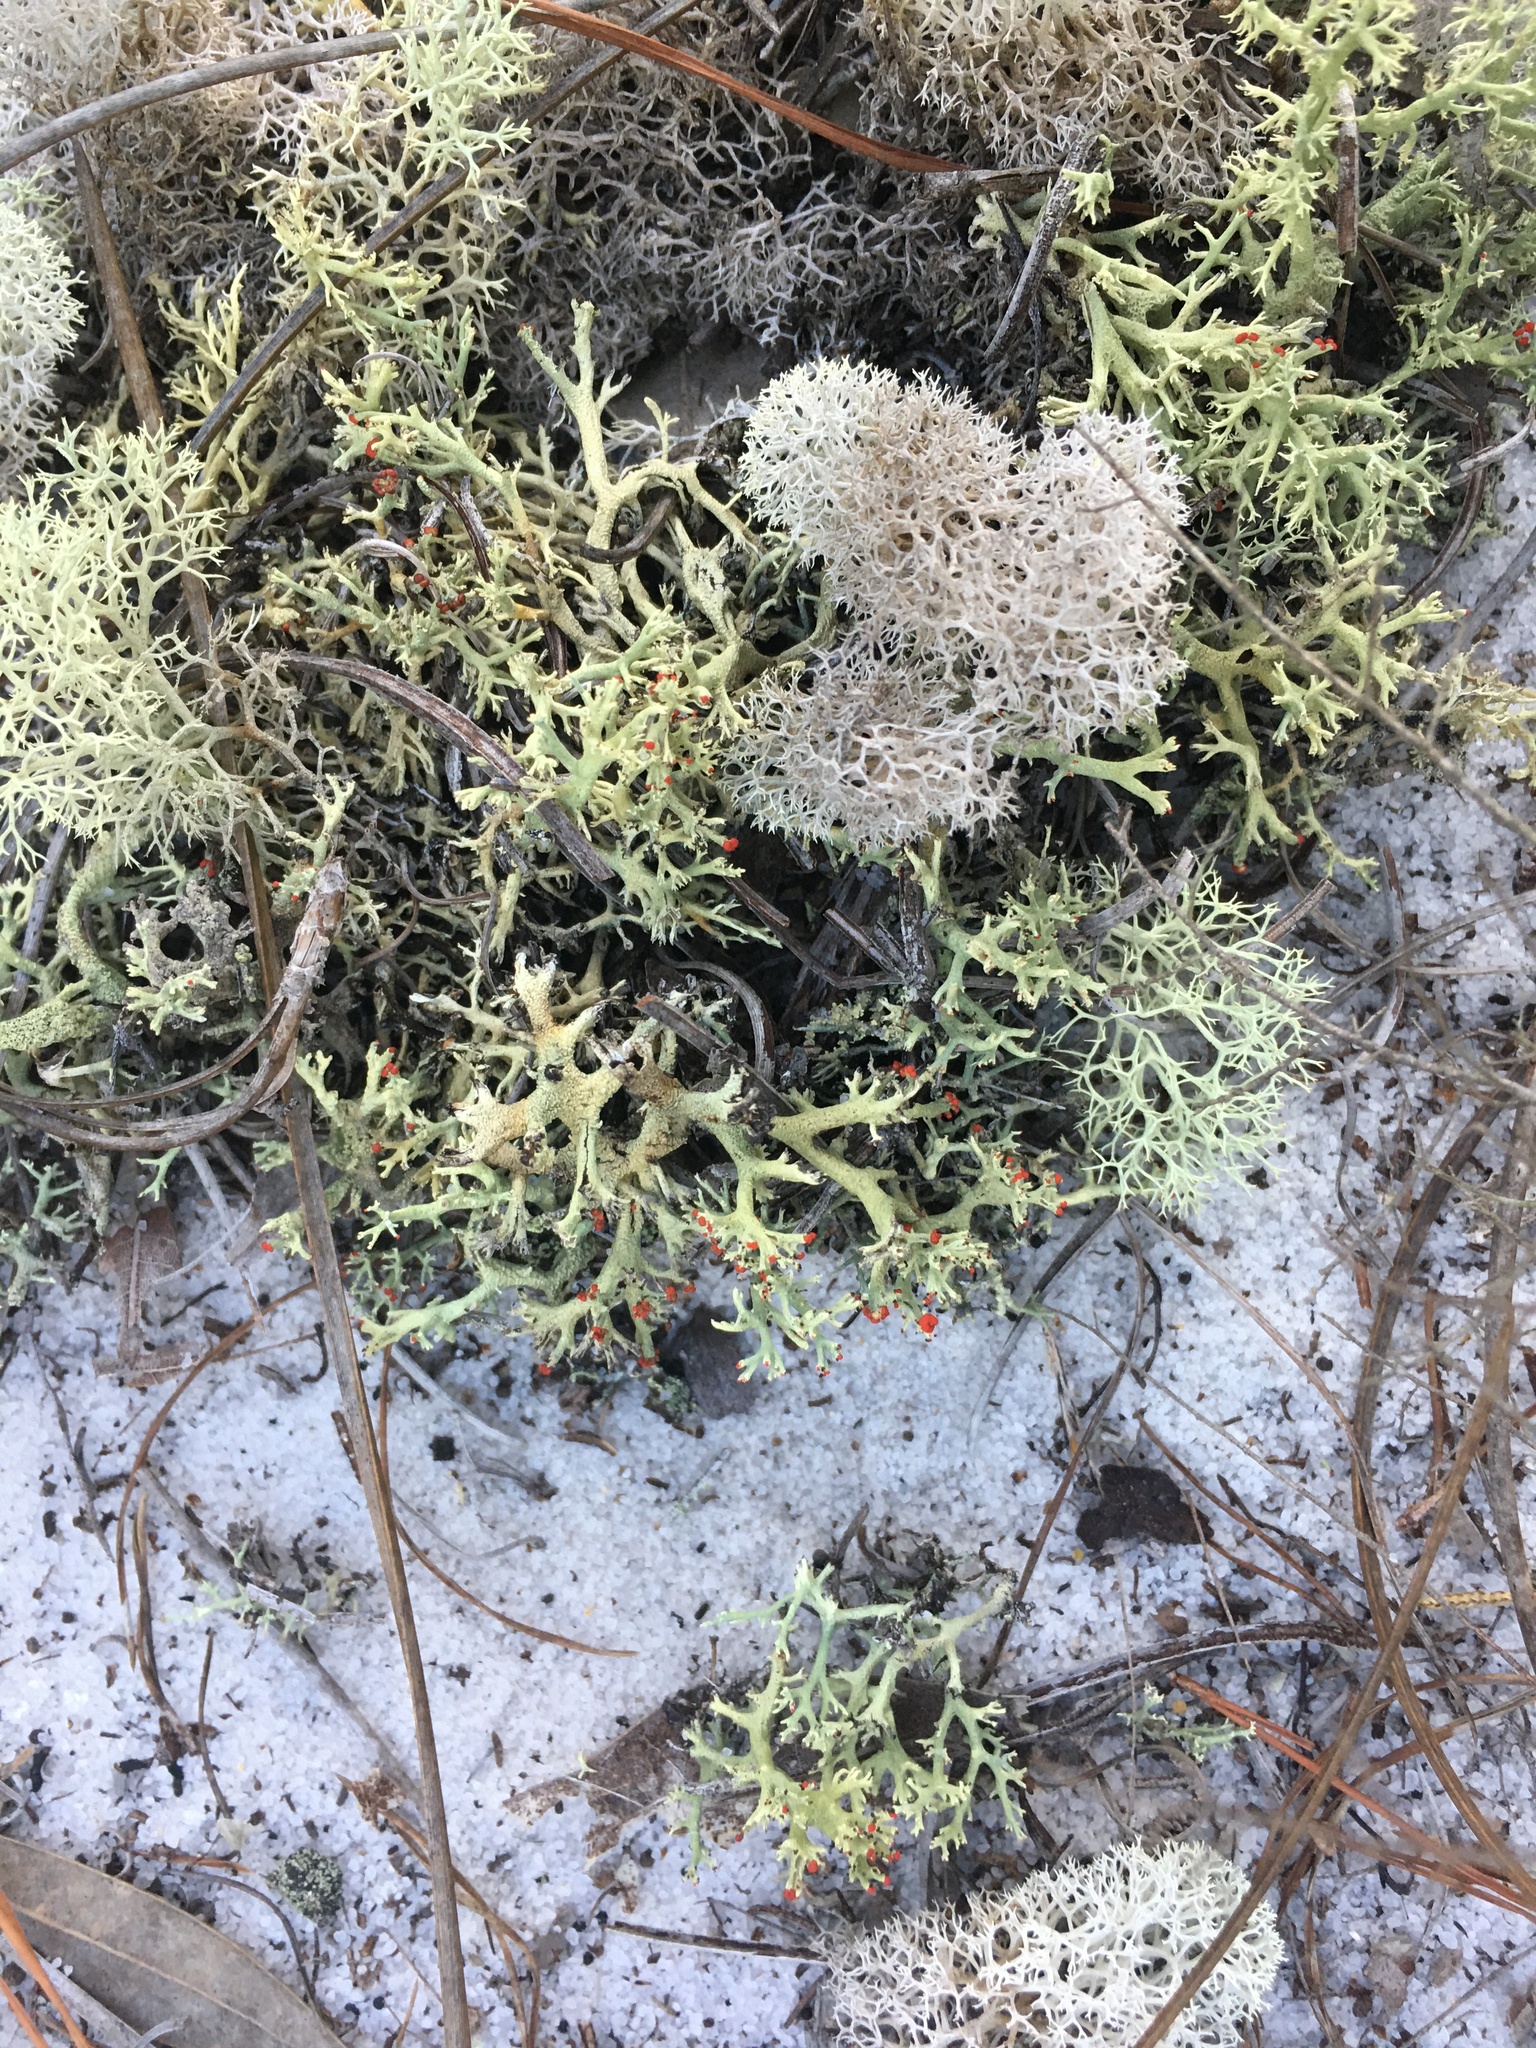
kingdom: Fungi
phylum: Ascomycota
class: Lecanoromycetes
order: Lecanorales
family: Cladoniaceae
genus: Cladonia
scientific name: Cladonia leporina
